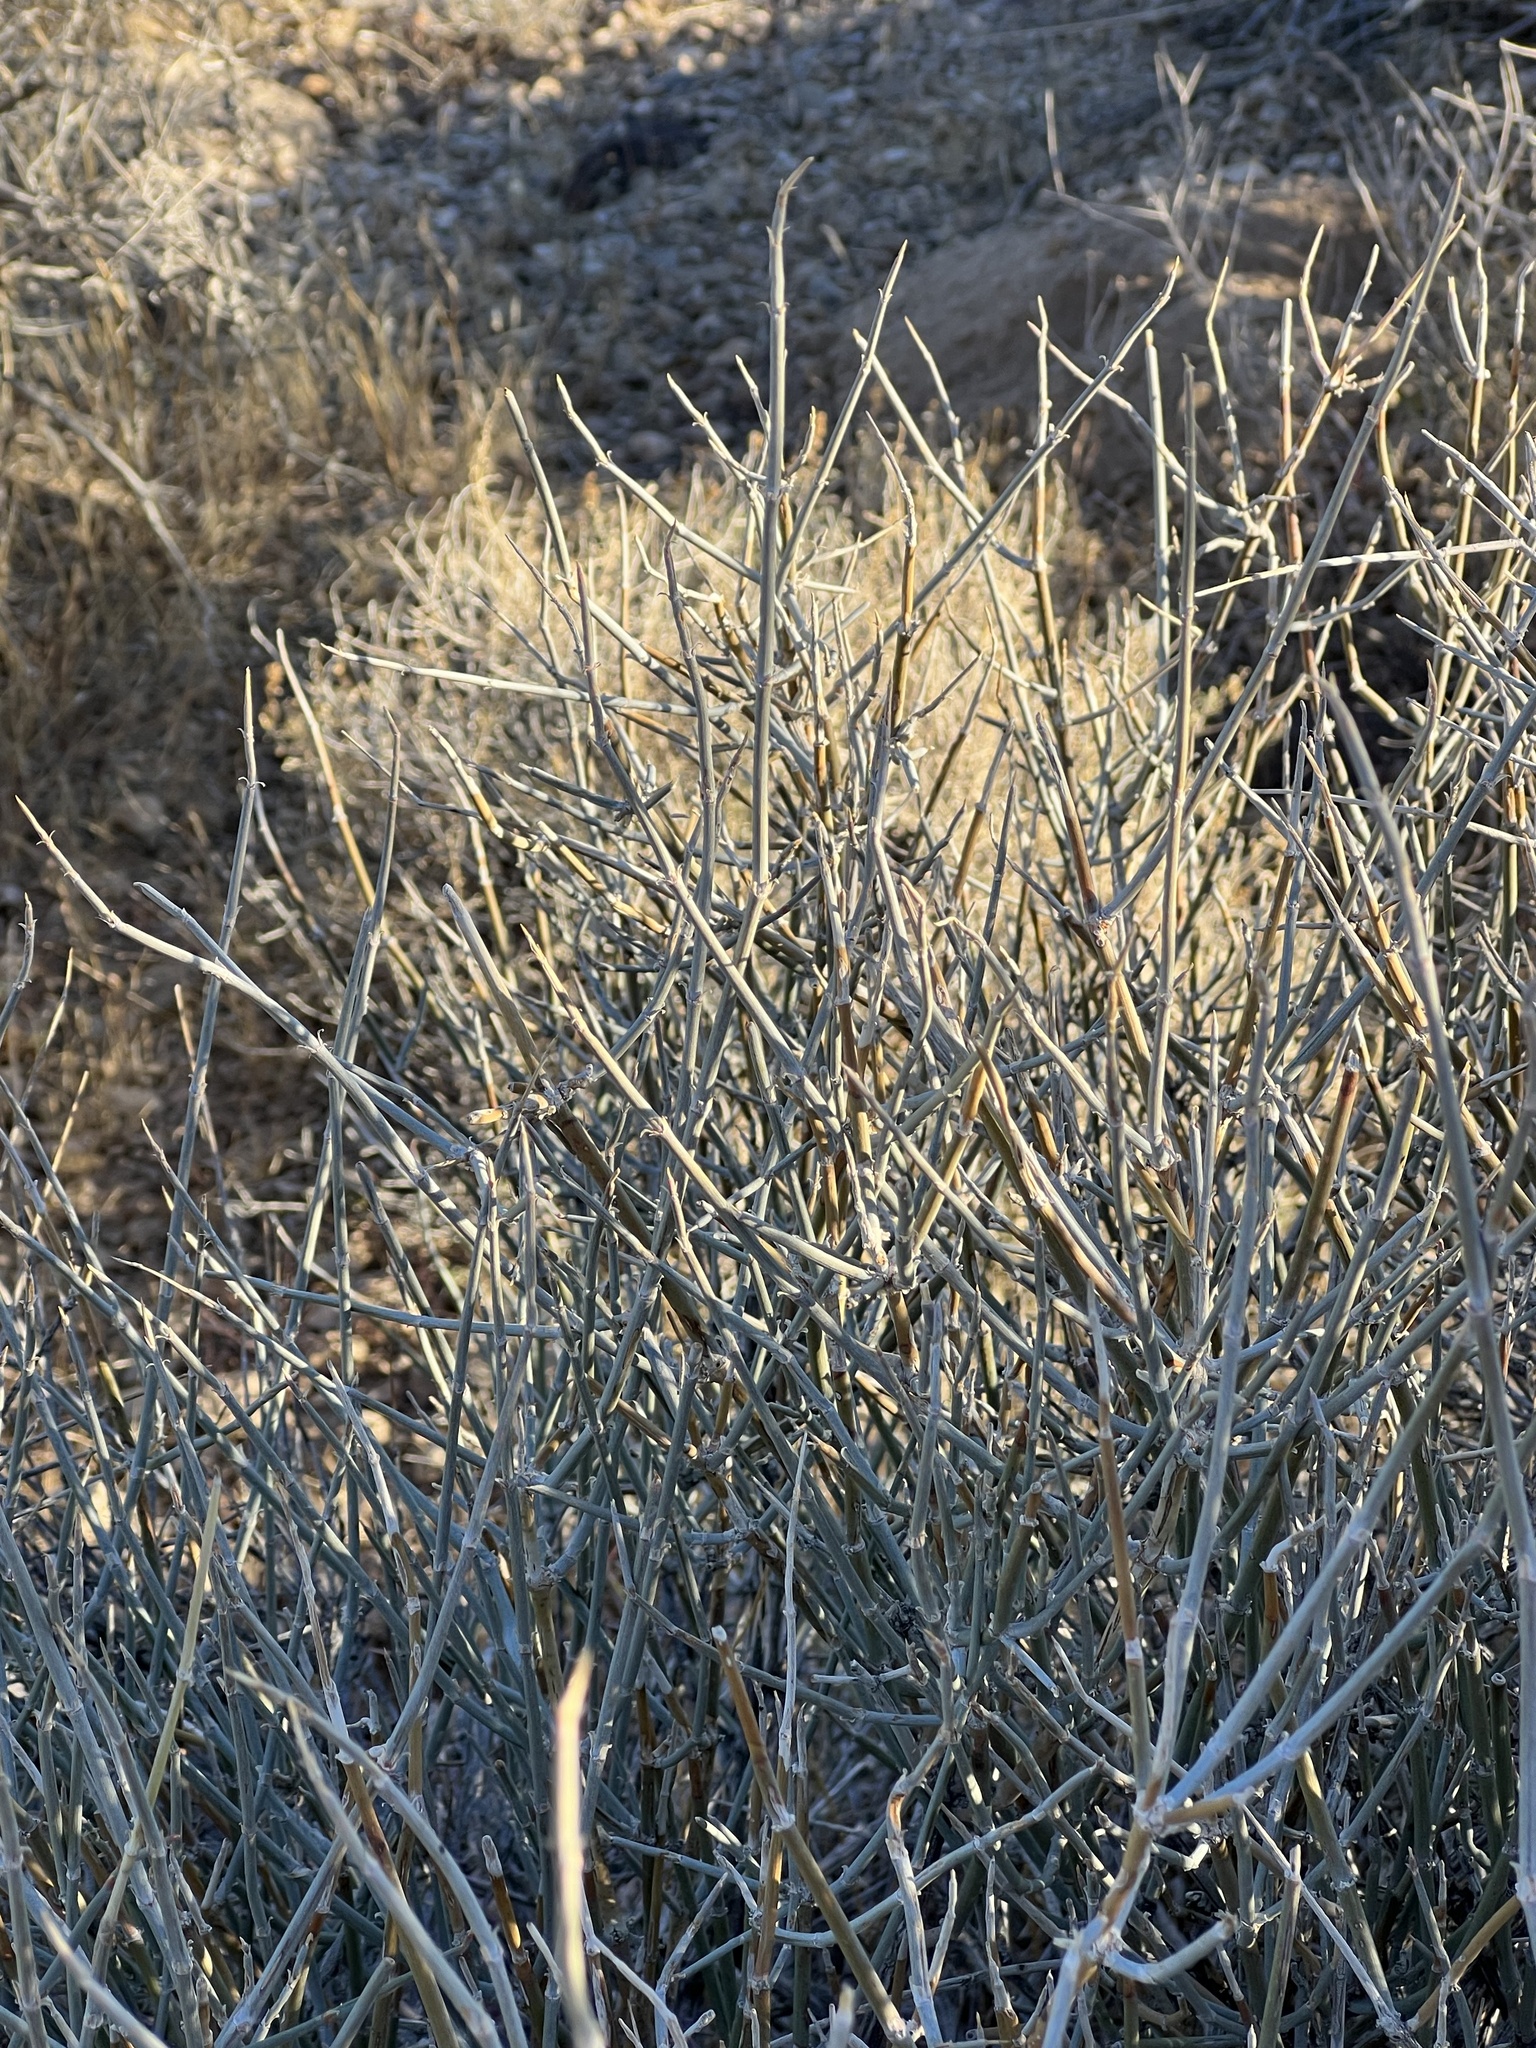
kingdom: Plantae
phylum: Tracheophyta
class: Gnetopsida
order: Ephedrales
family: Ephedraceae
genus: Ephedra
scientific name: Ephedra nevadensis
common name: Gray ephedra
